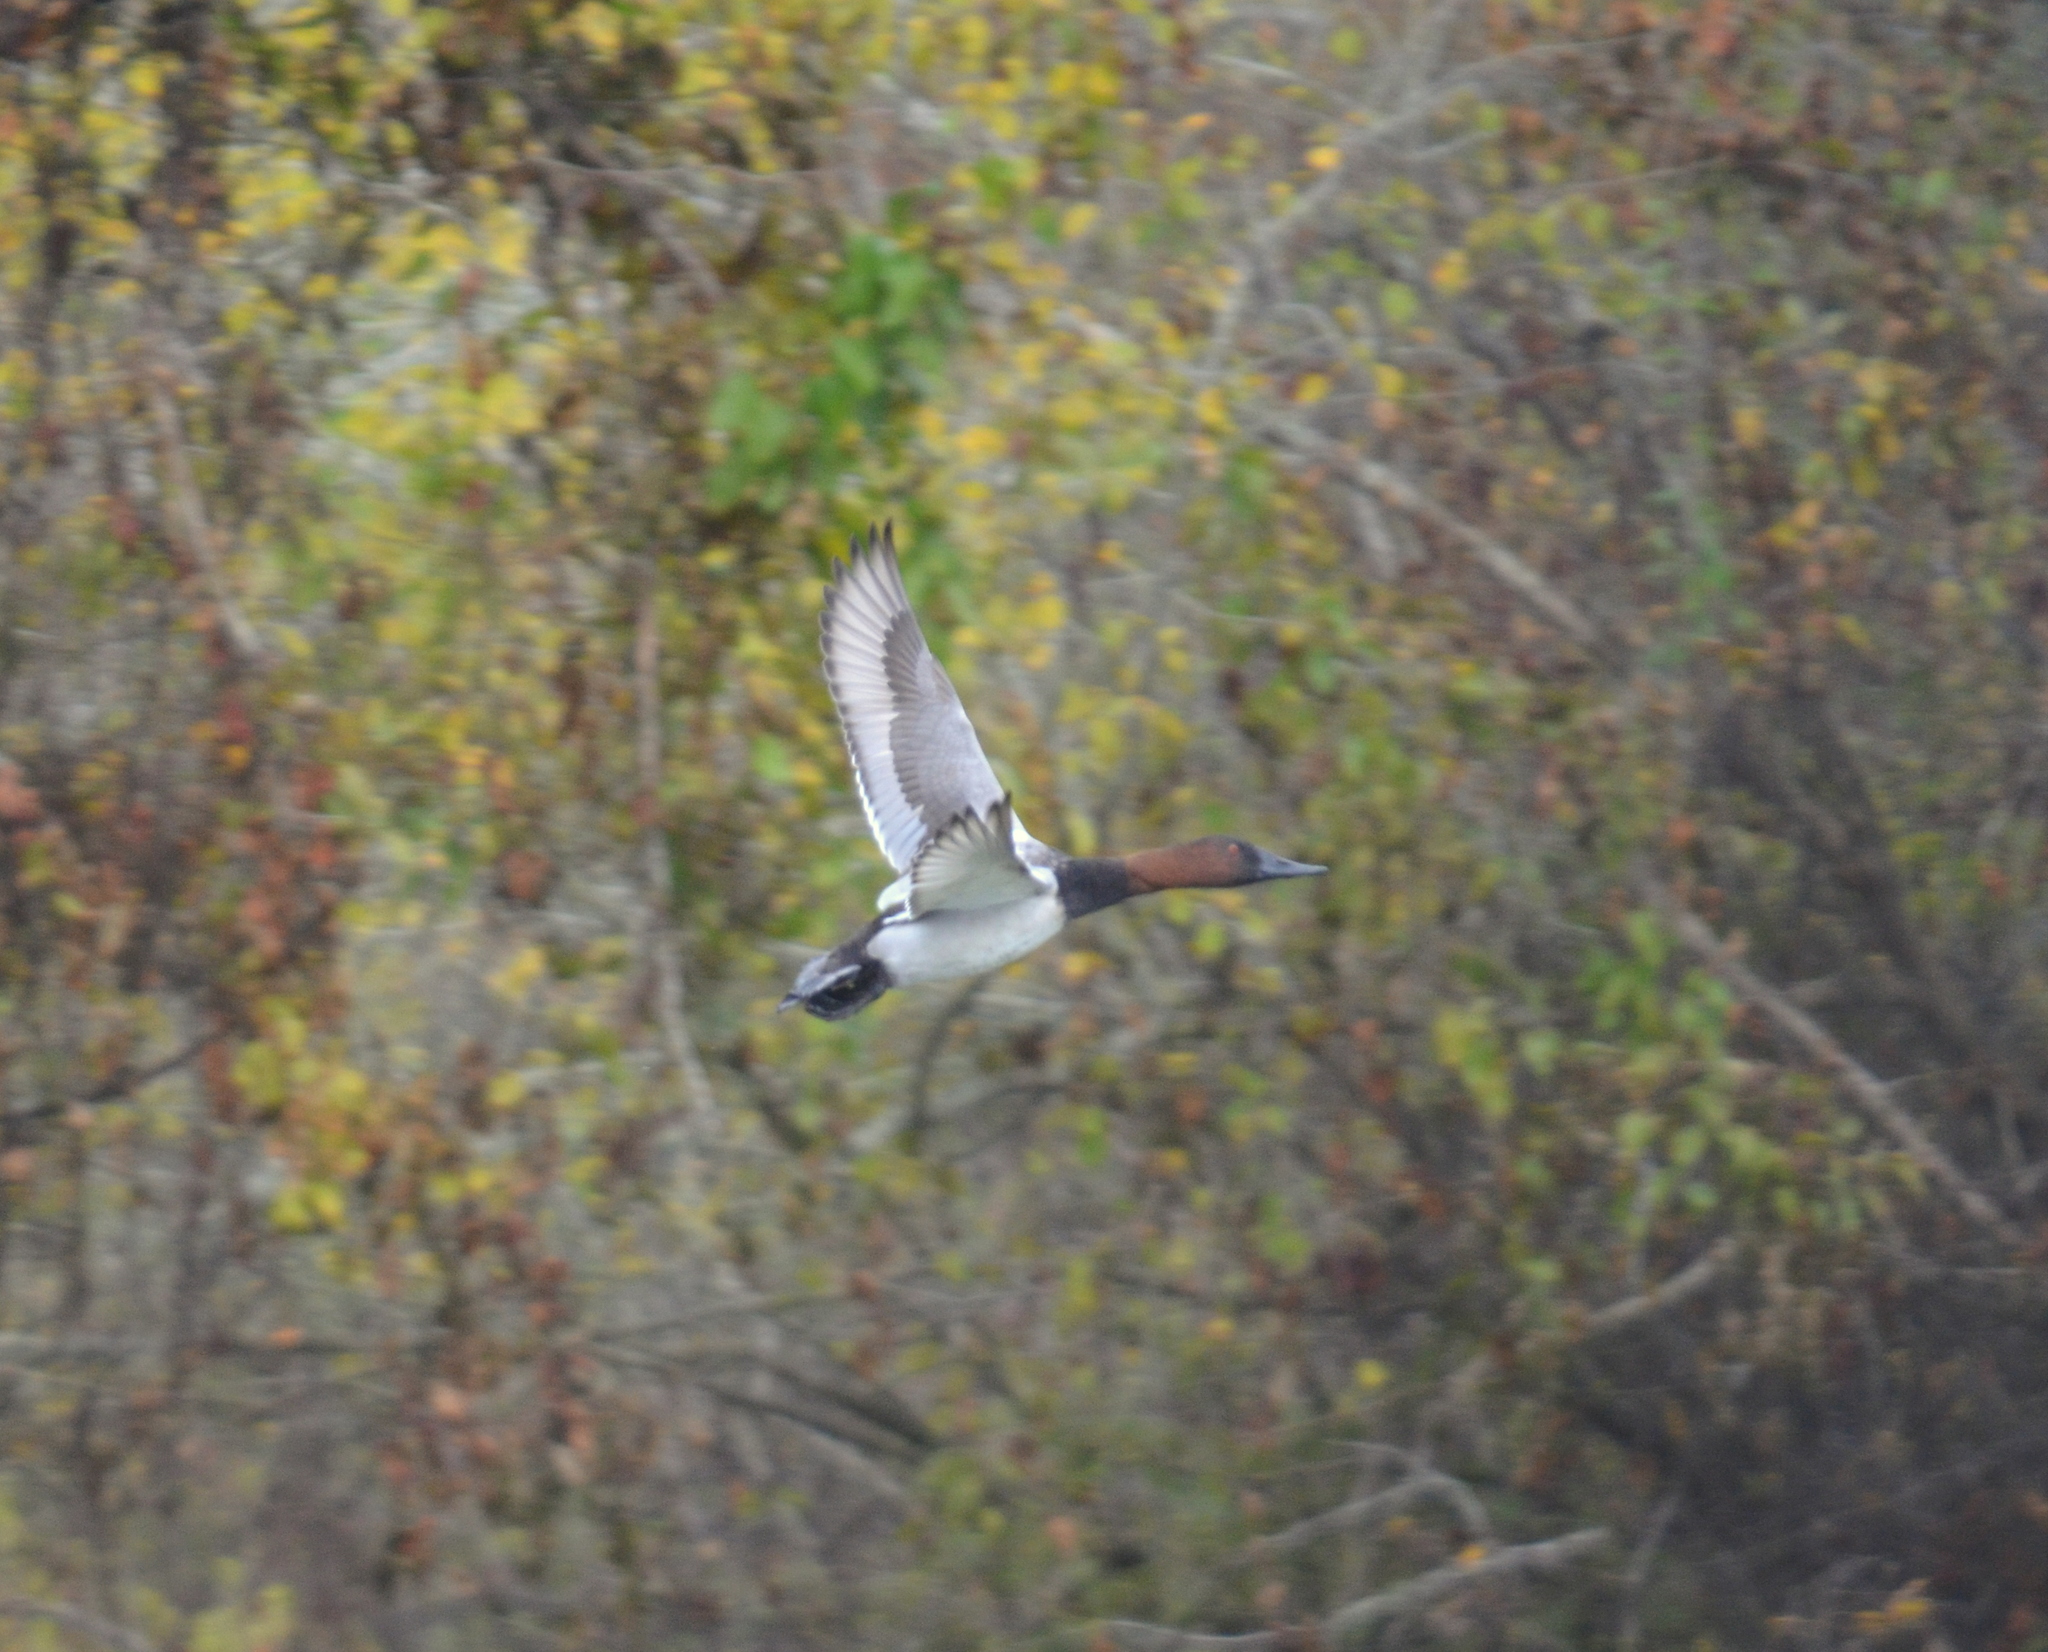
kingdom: Animalia
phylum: Chordata
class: Aves
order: Anseriformes
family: Anatidae
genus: Aythya
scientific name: Aythya valisineria
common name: Canvasback
